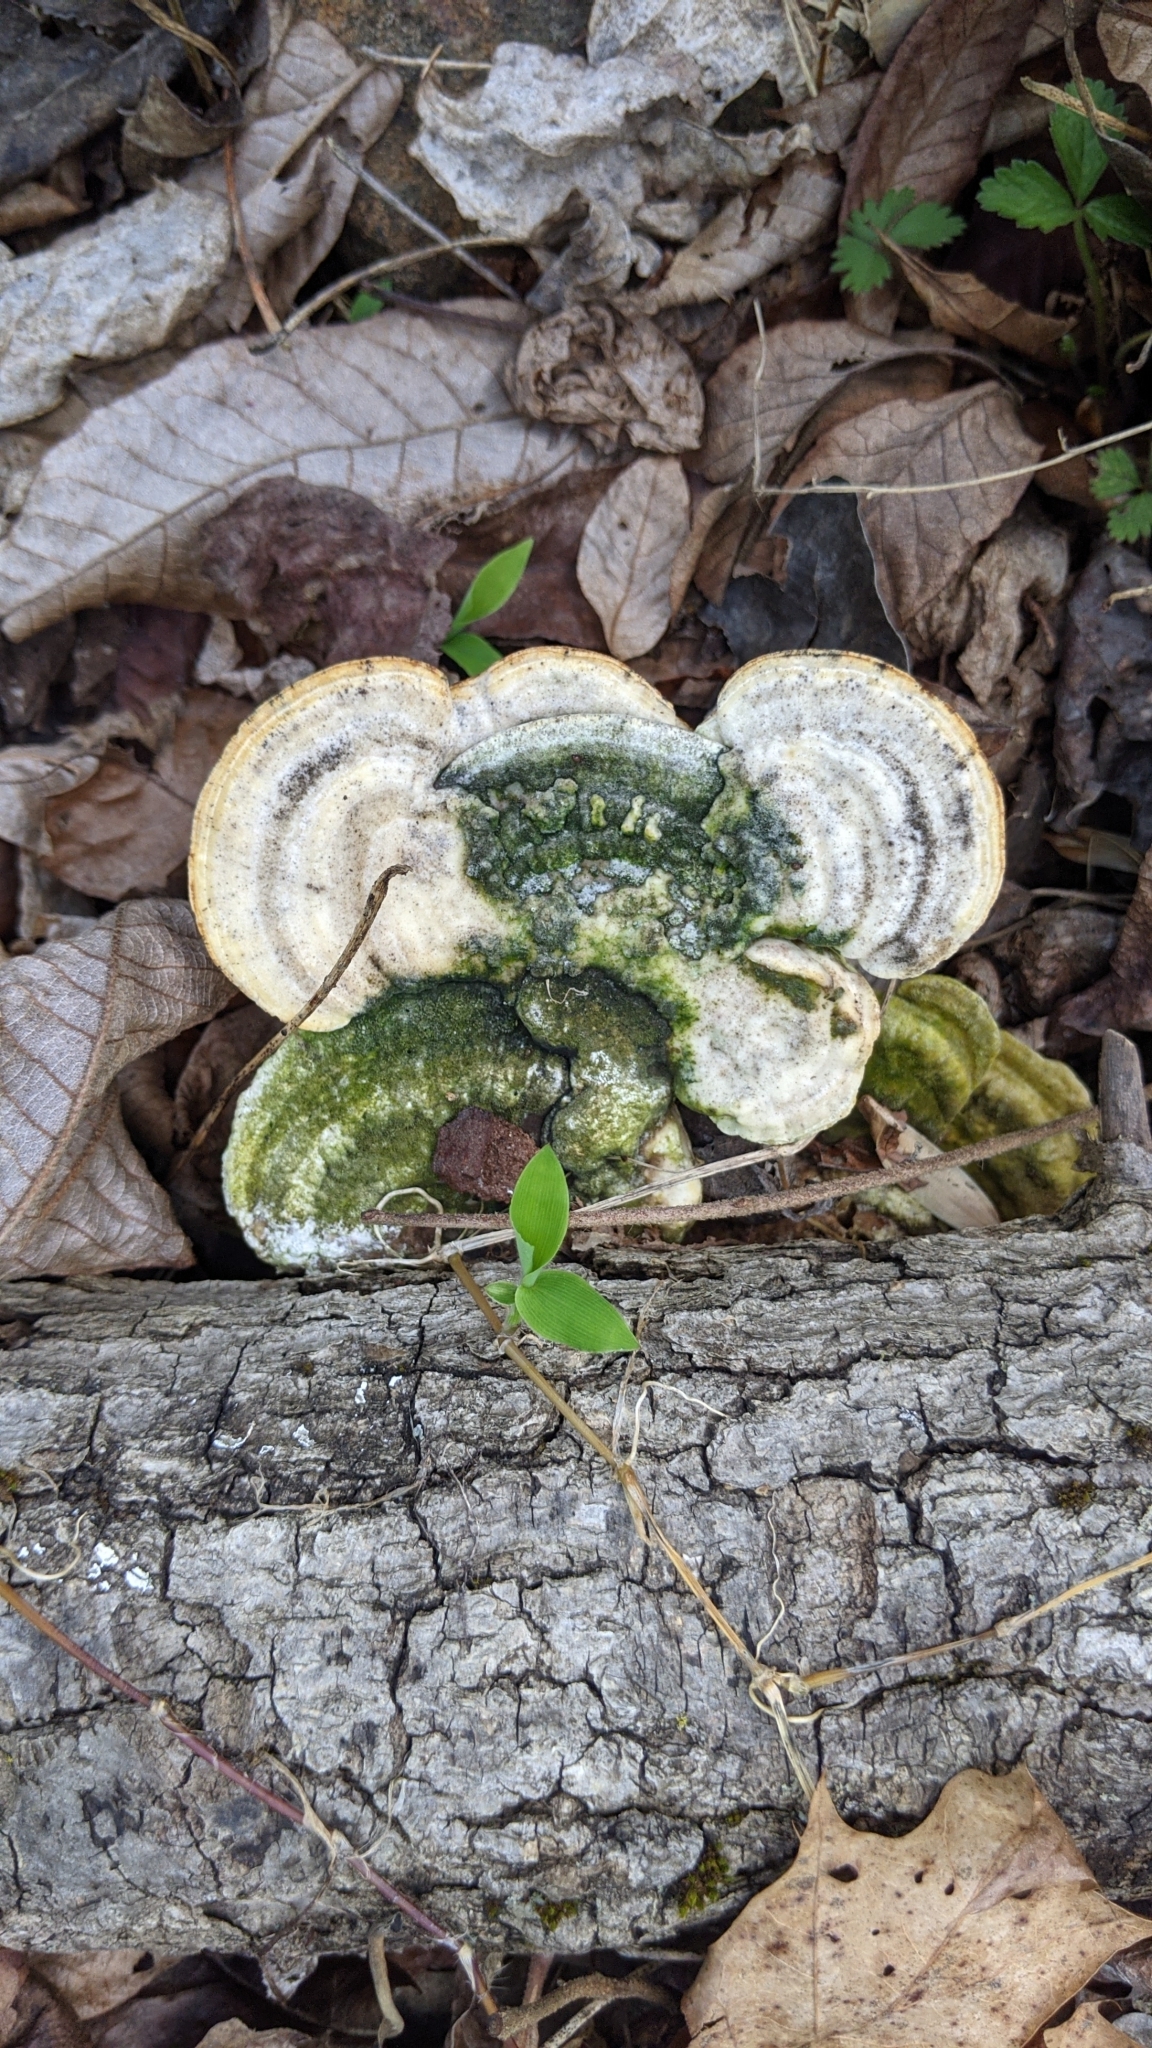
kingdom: Fungi
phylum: Basidiomycota
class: Agaricomycetes
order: Polyporales
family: Polyporaceae
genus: Trametes
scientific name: Trametes gibbosa
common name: Lumpy bracket
